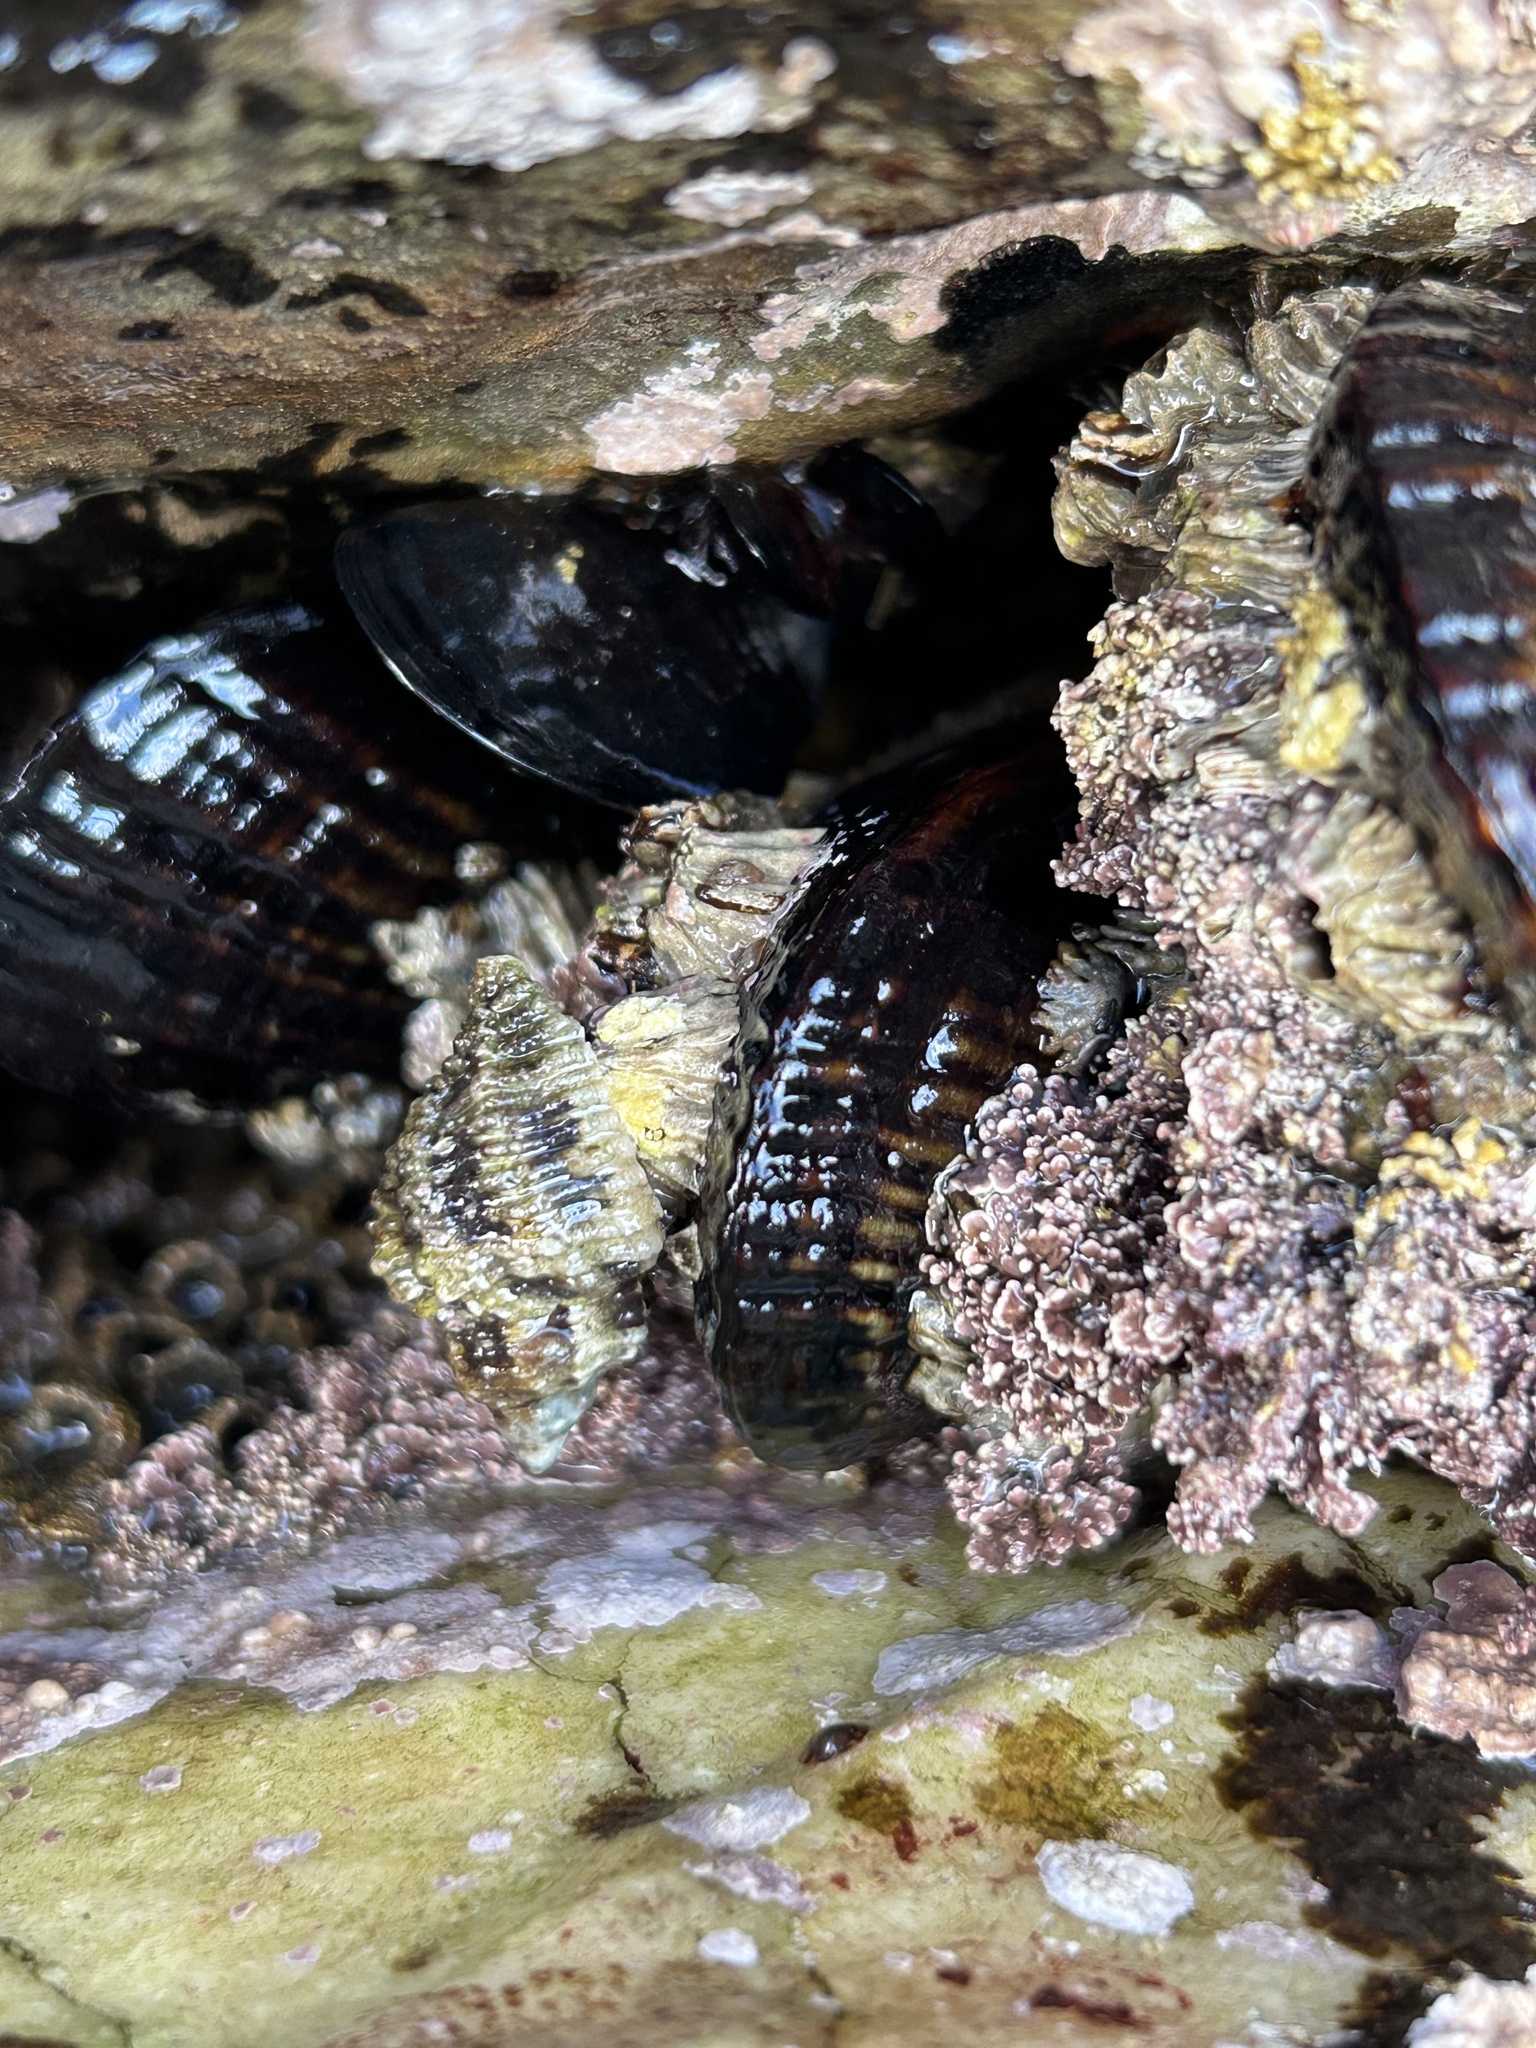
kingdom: Animalia
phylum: Mollusca
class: Gastropoda
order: Neogastropoda
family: Muricidae
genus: Paciocinebrina
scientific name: Paciocinebrina circumtexta
